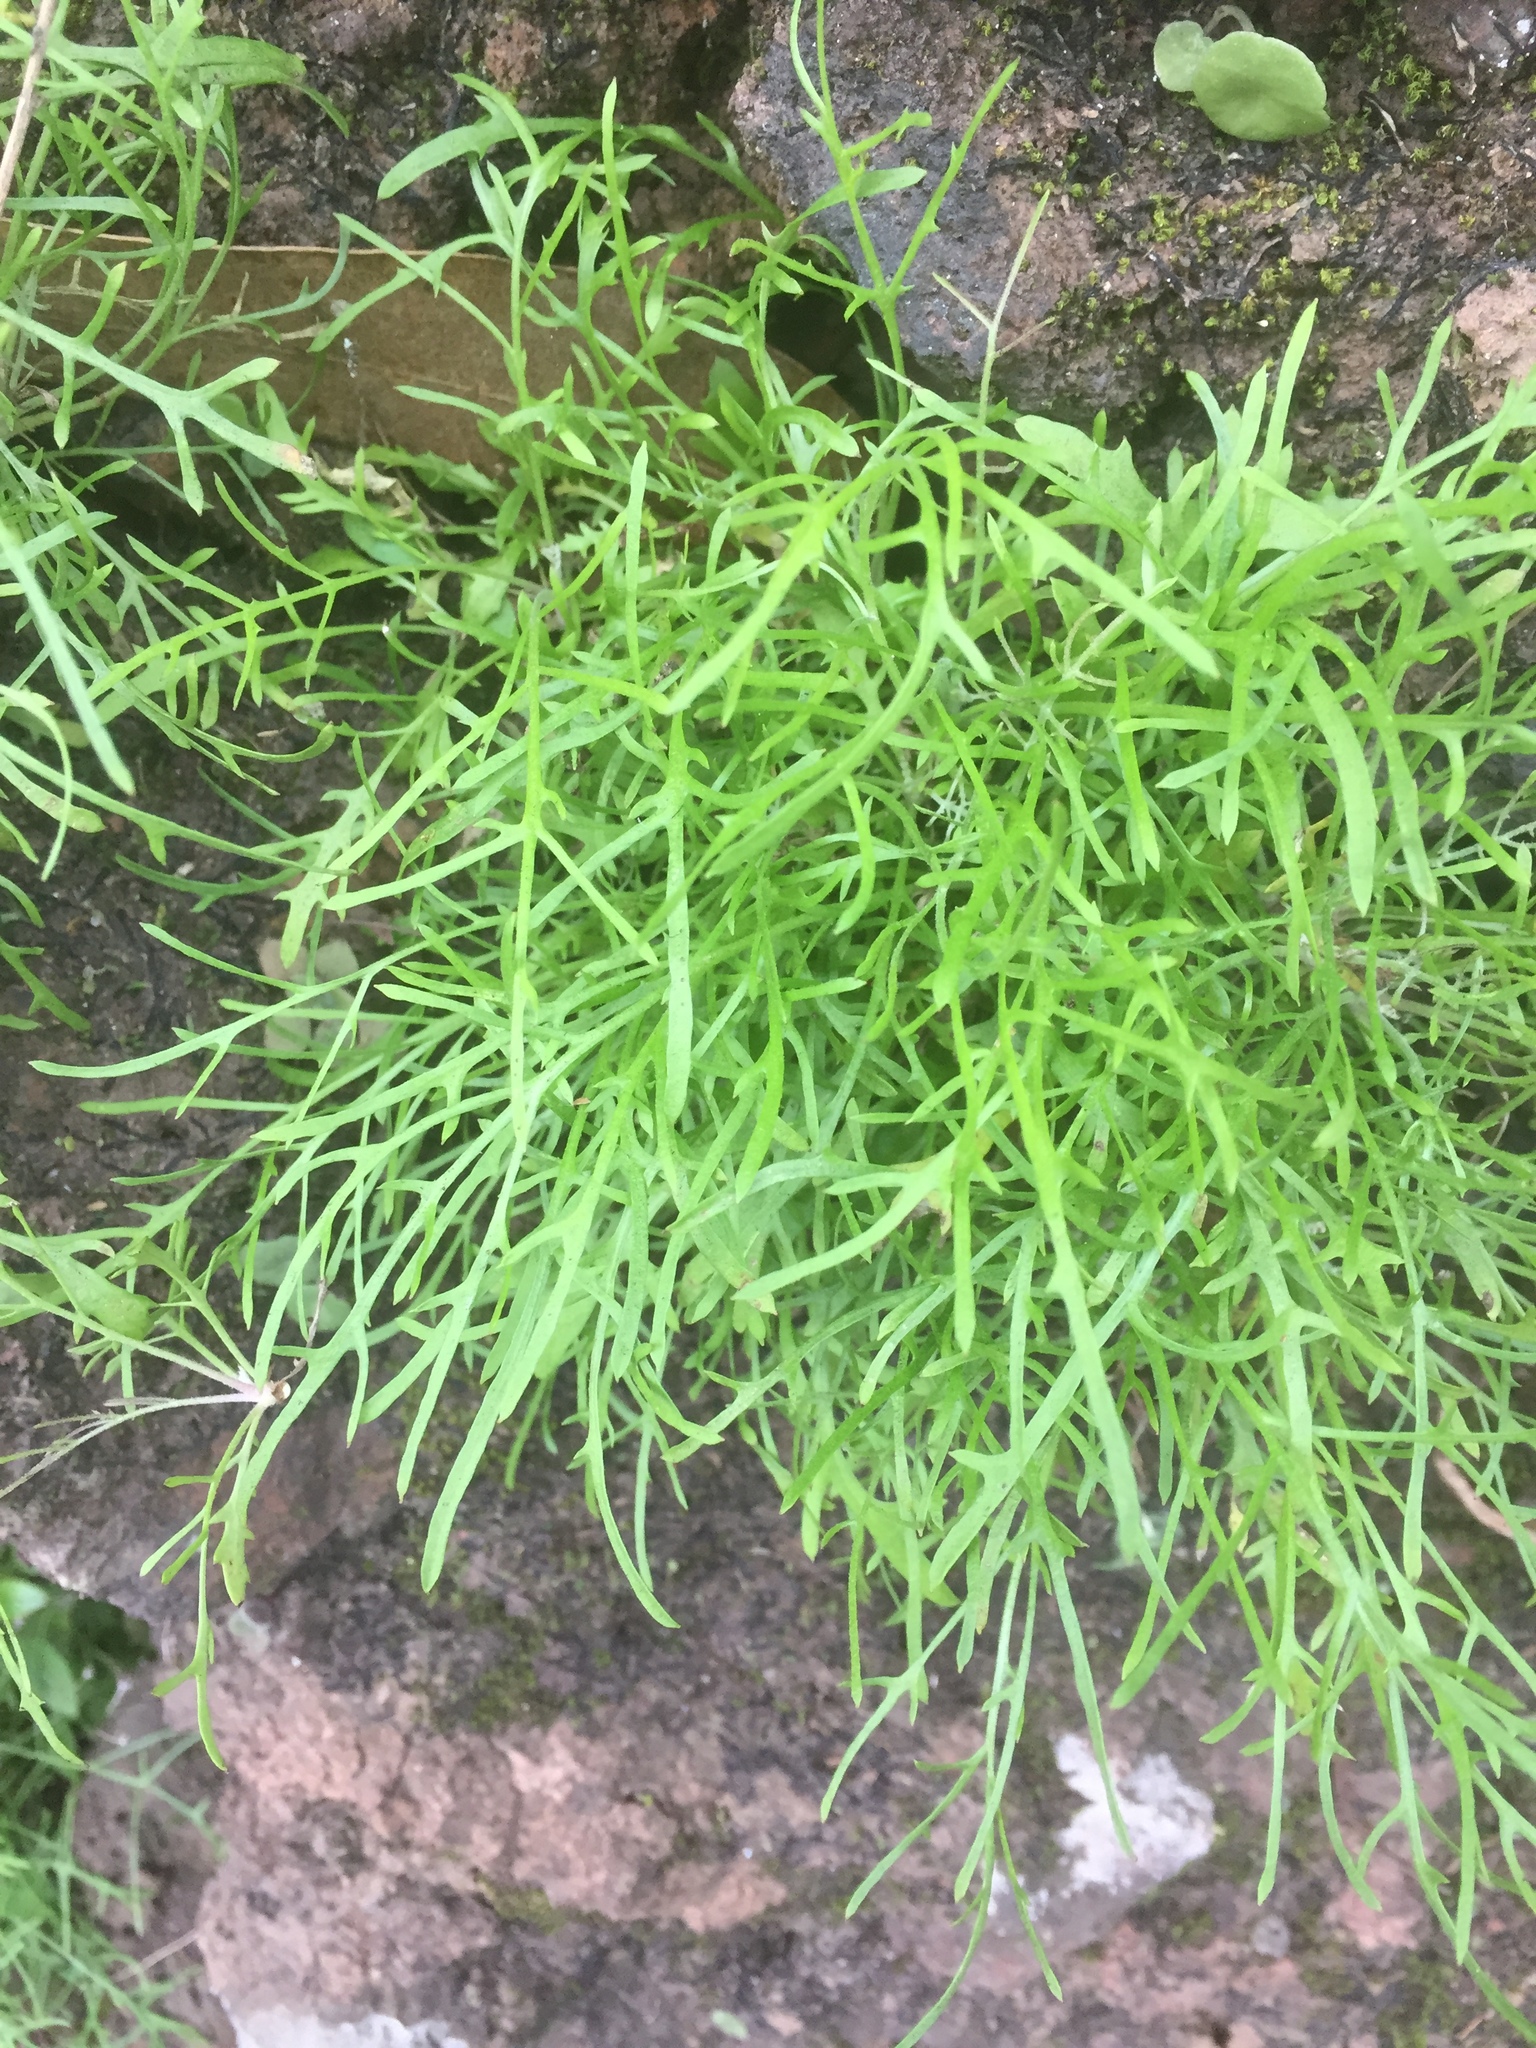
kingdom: Plantae
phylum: Tracheophyta
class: Magnoliopsida
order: Asterales
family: Asteraceae
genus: Tolpis
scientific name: Tolpis succulenta
